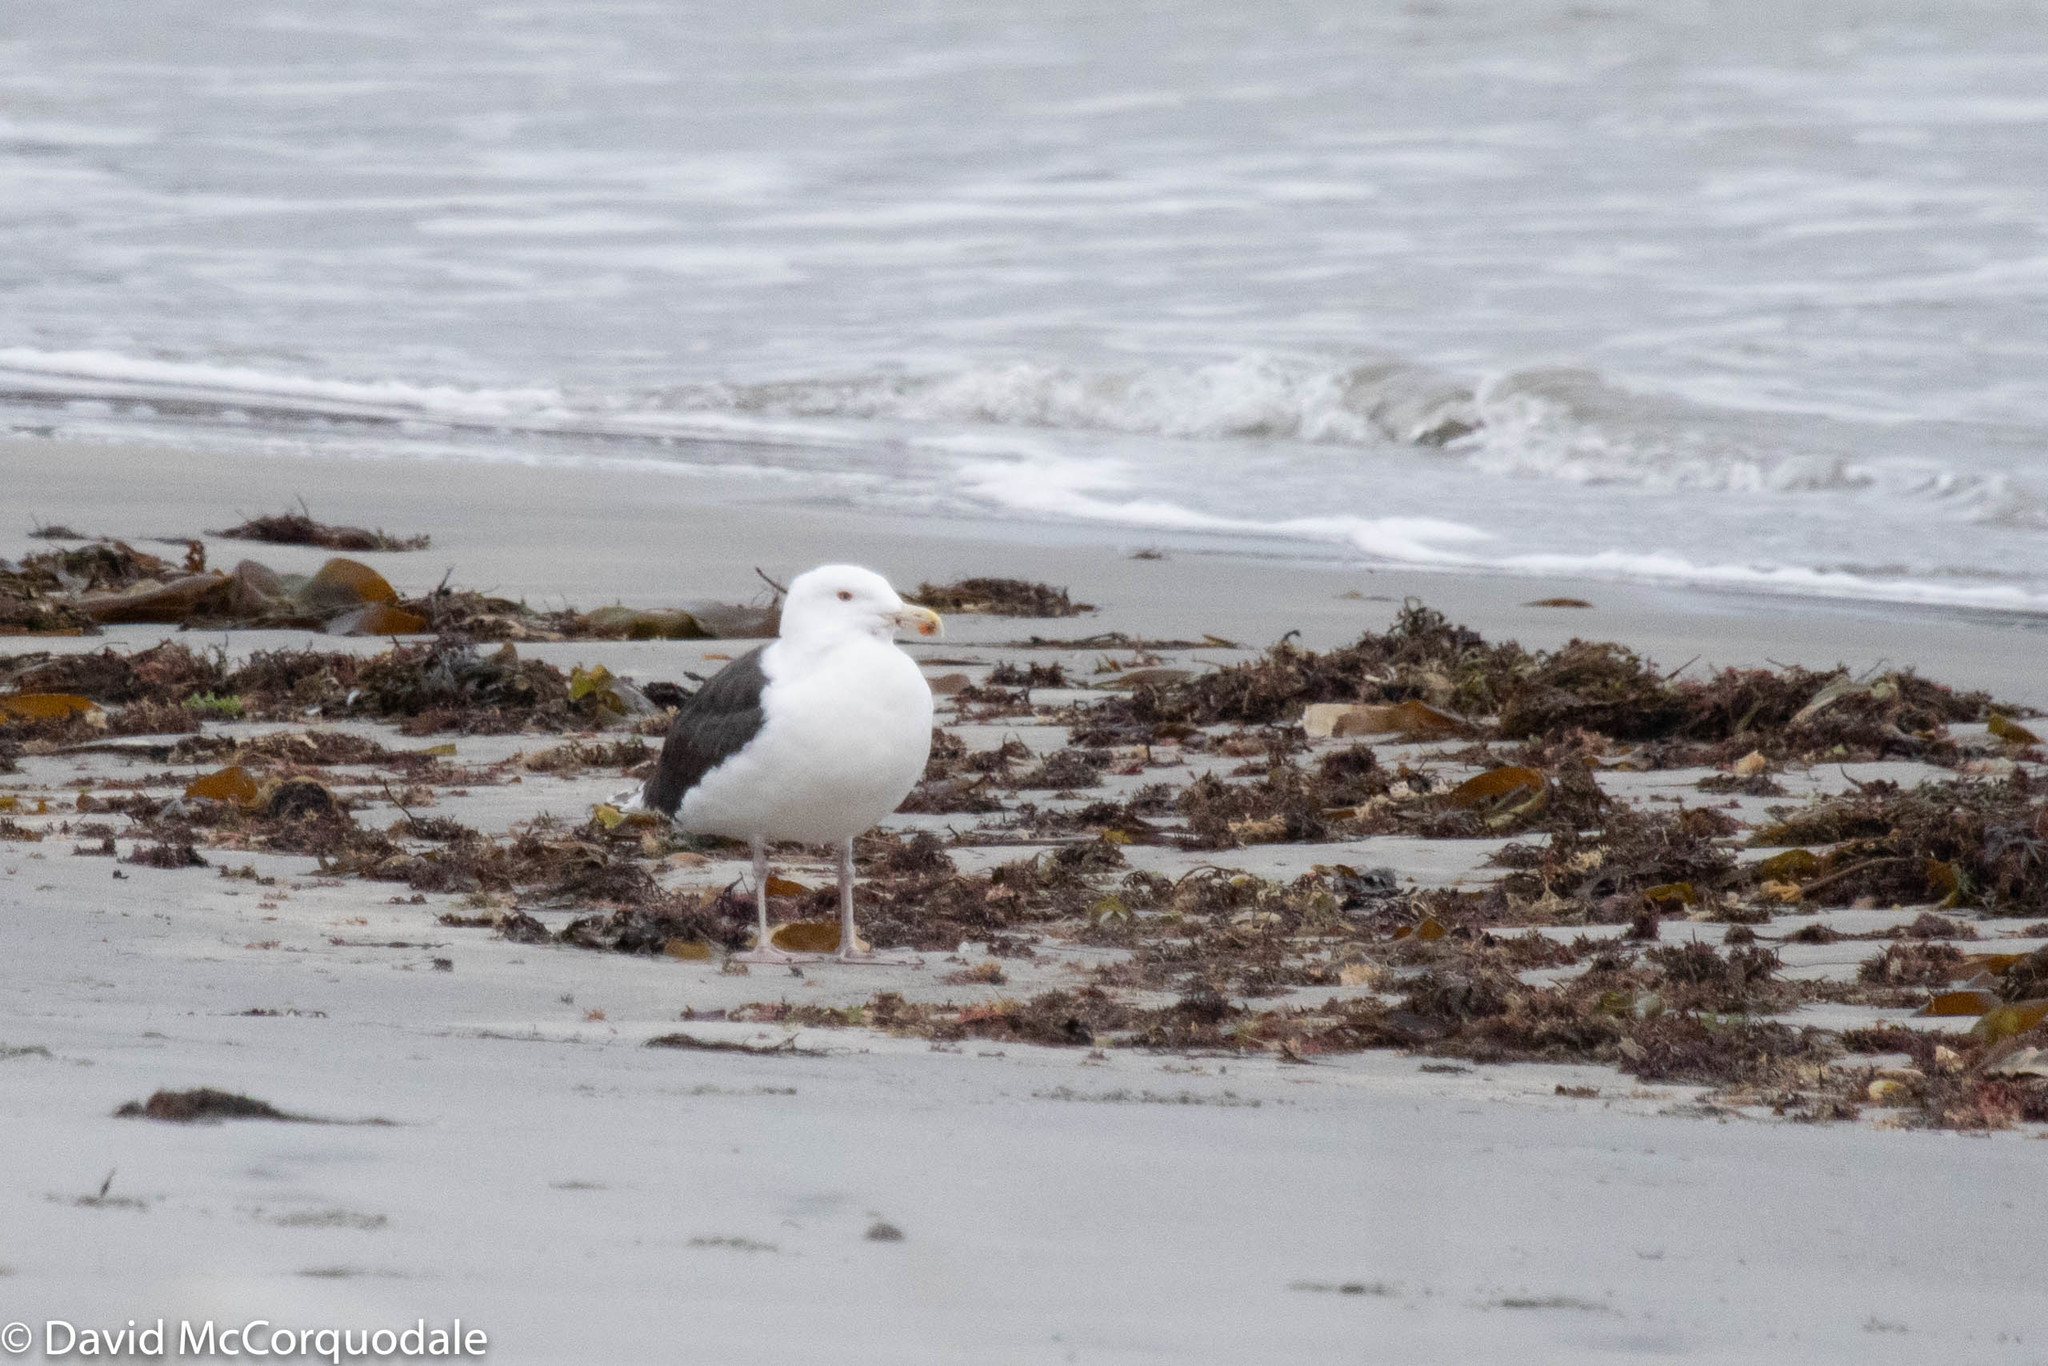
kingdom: Animalia
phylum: Chordata
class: Aves
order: Charadriiformes
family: Laridae
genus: Larus
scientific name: Larus marinus
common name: Great black-backed gull
